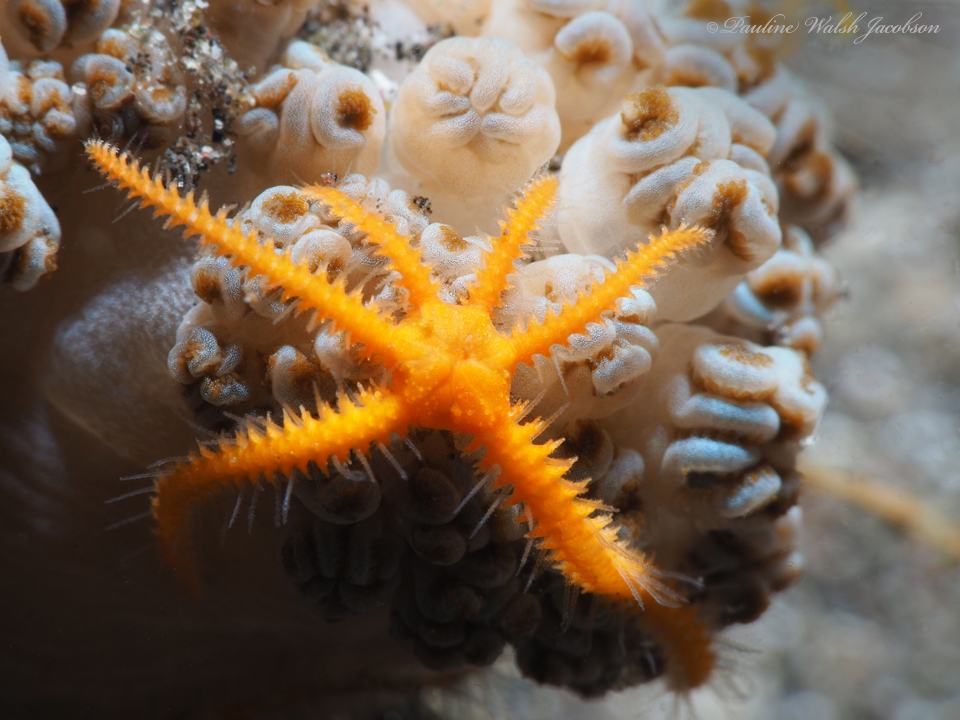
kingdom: Animalia
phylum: Echinodermata
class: Ophiuroidea
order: Amphilepidida
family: Ophiotrichidae
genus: Ophiothela
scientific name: Ophiothela mirabilis
